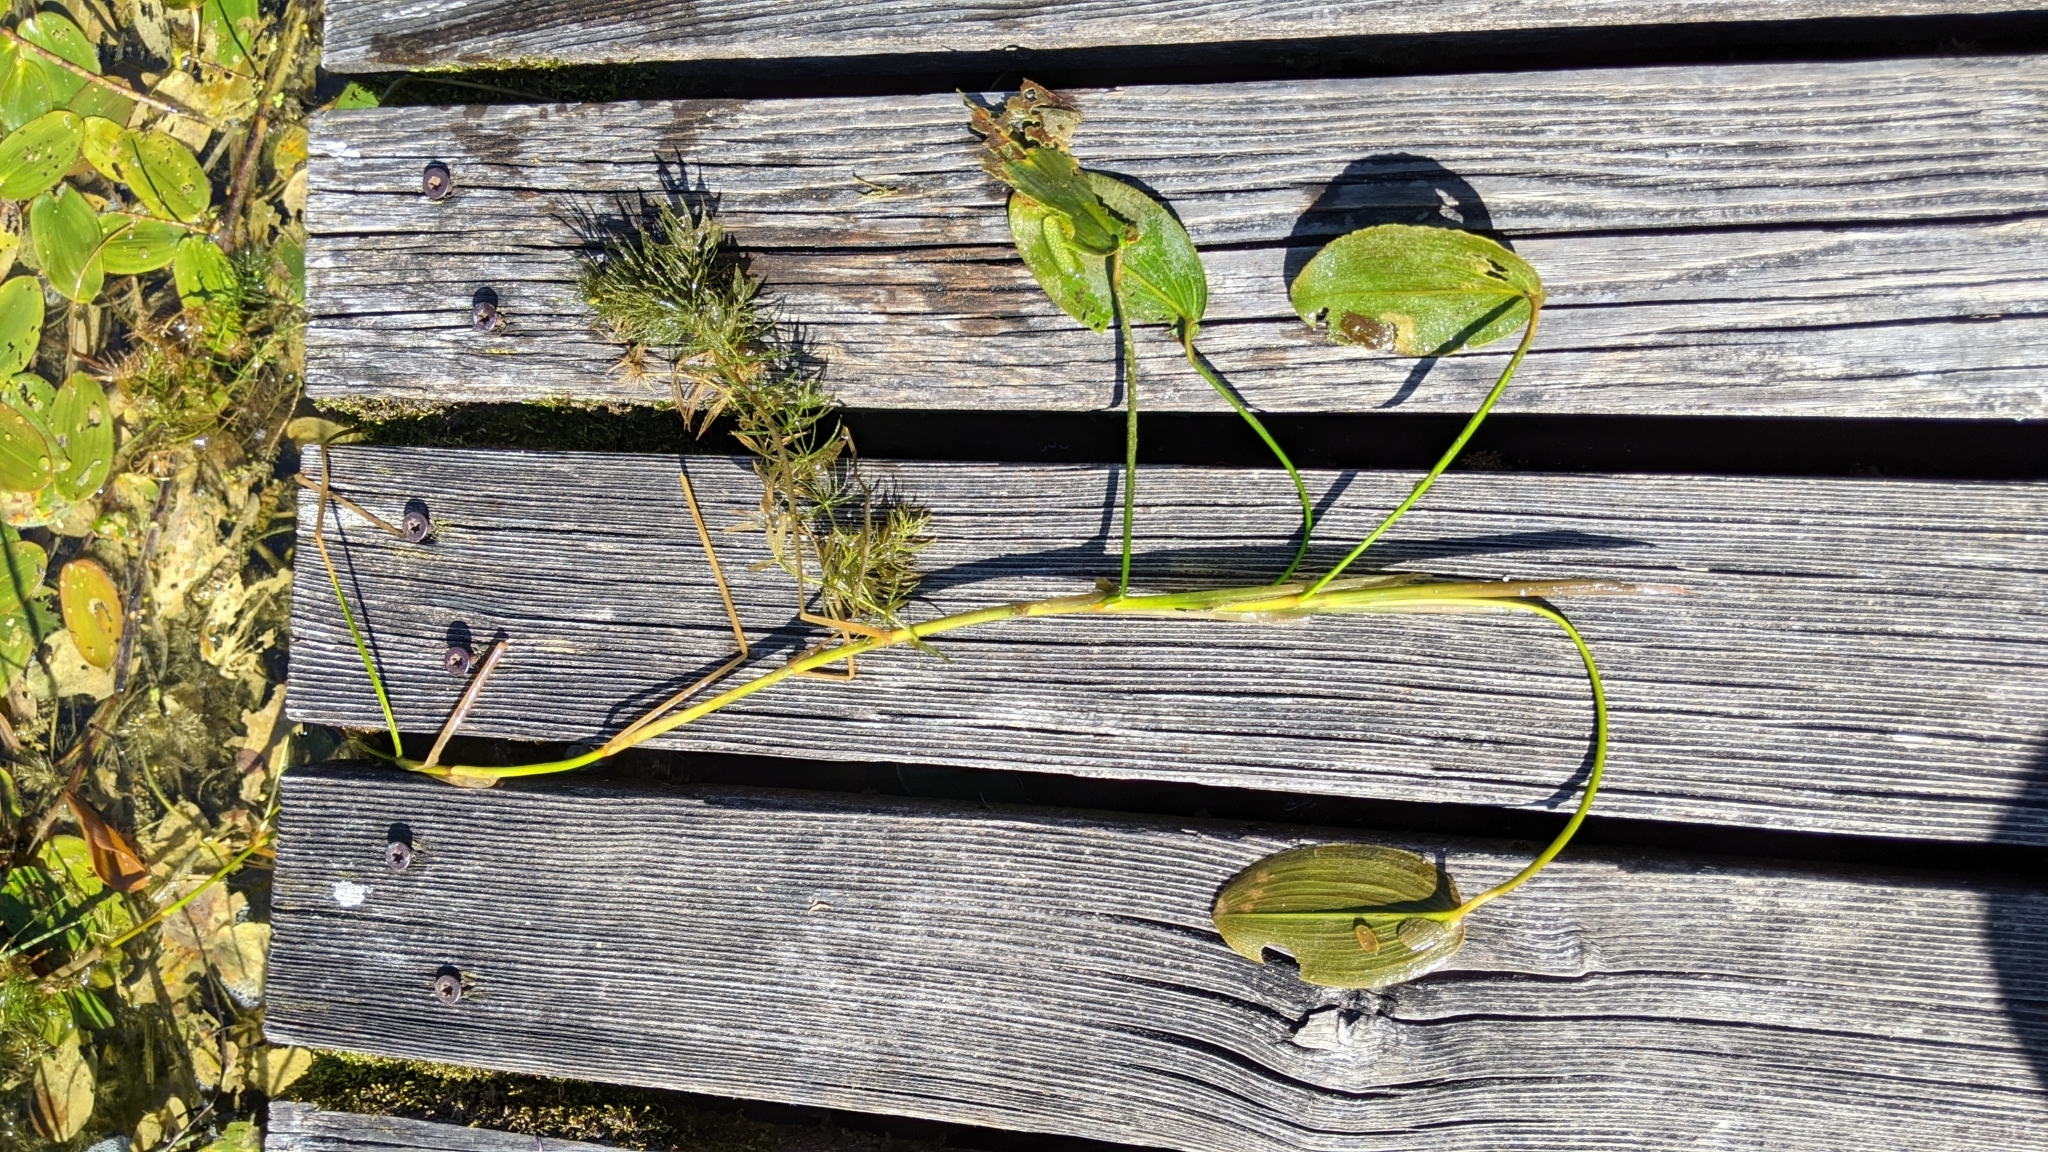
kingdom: Plantae
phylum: Tracheophyta
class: Liliopsida
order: Alismatales
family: Potamogetonaceae
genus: Potamogeton
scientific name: Potamogeton natans
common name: Broad-leaved pondweed
